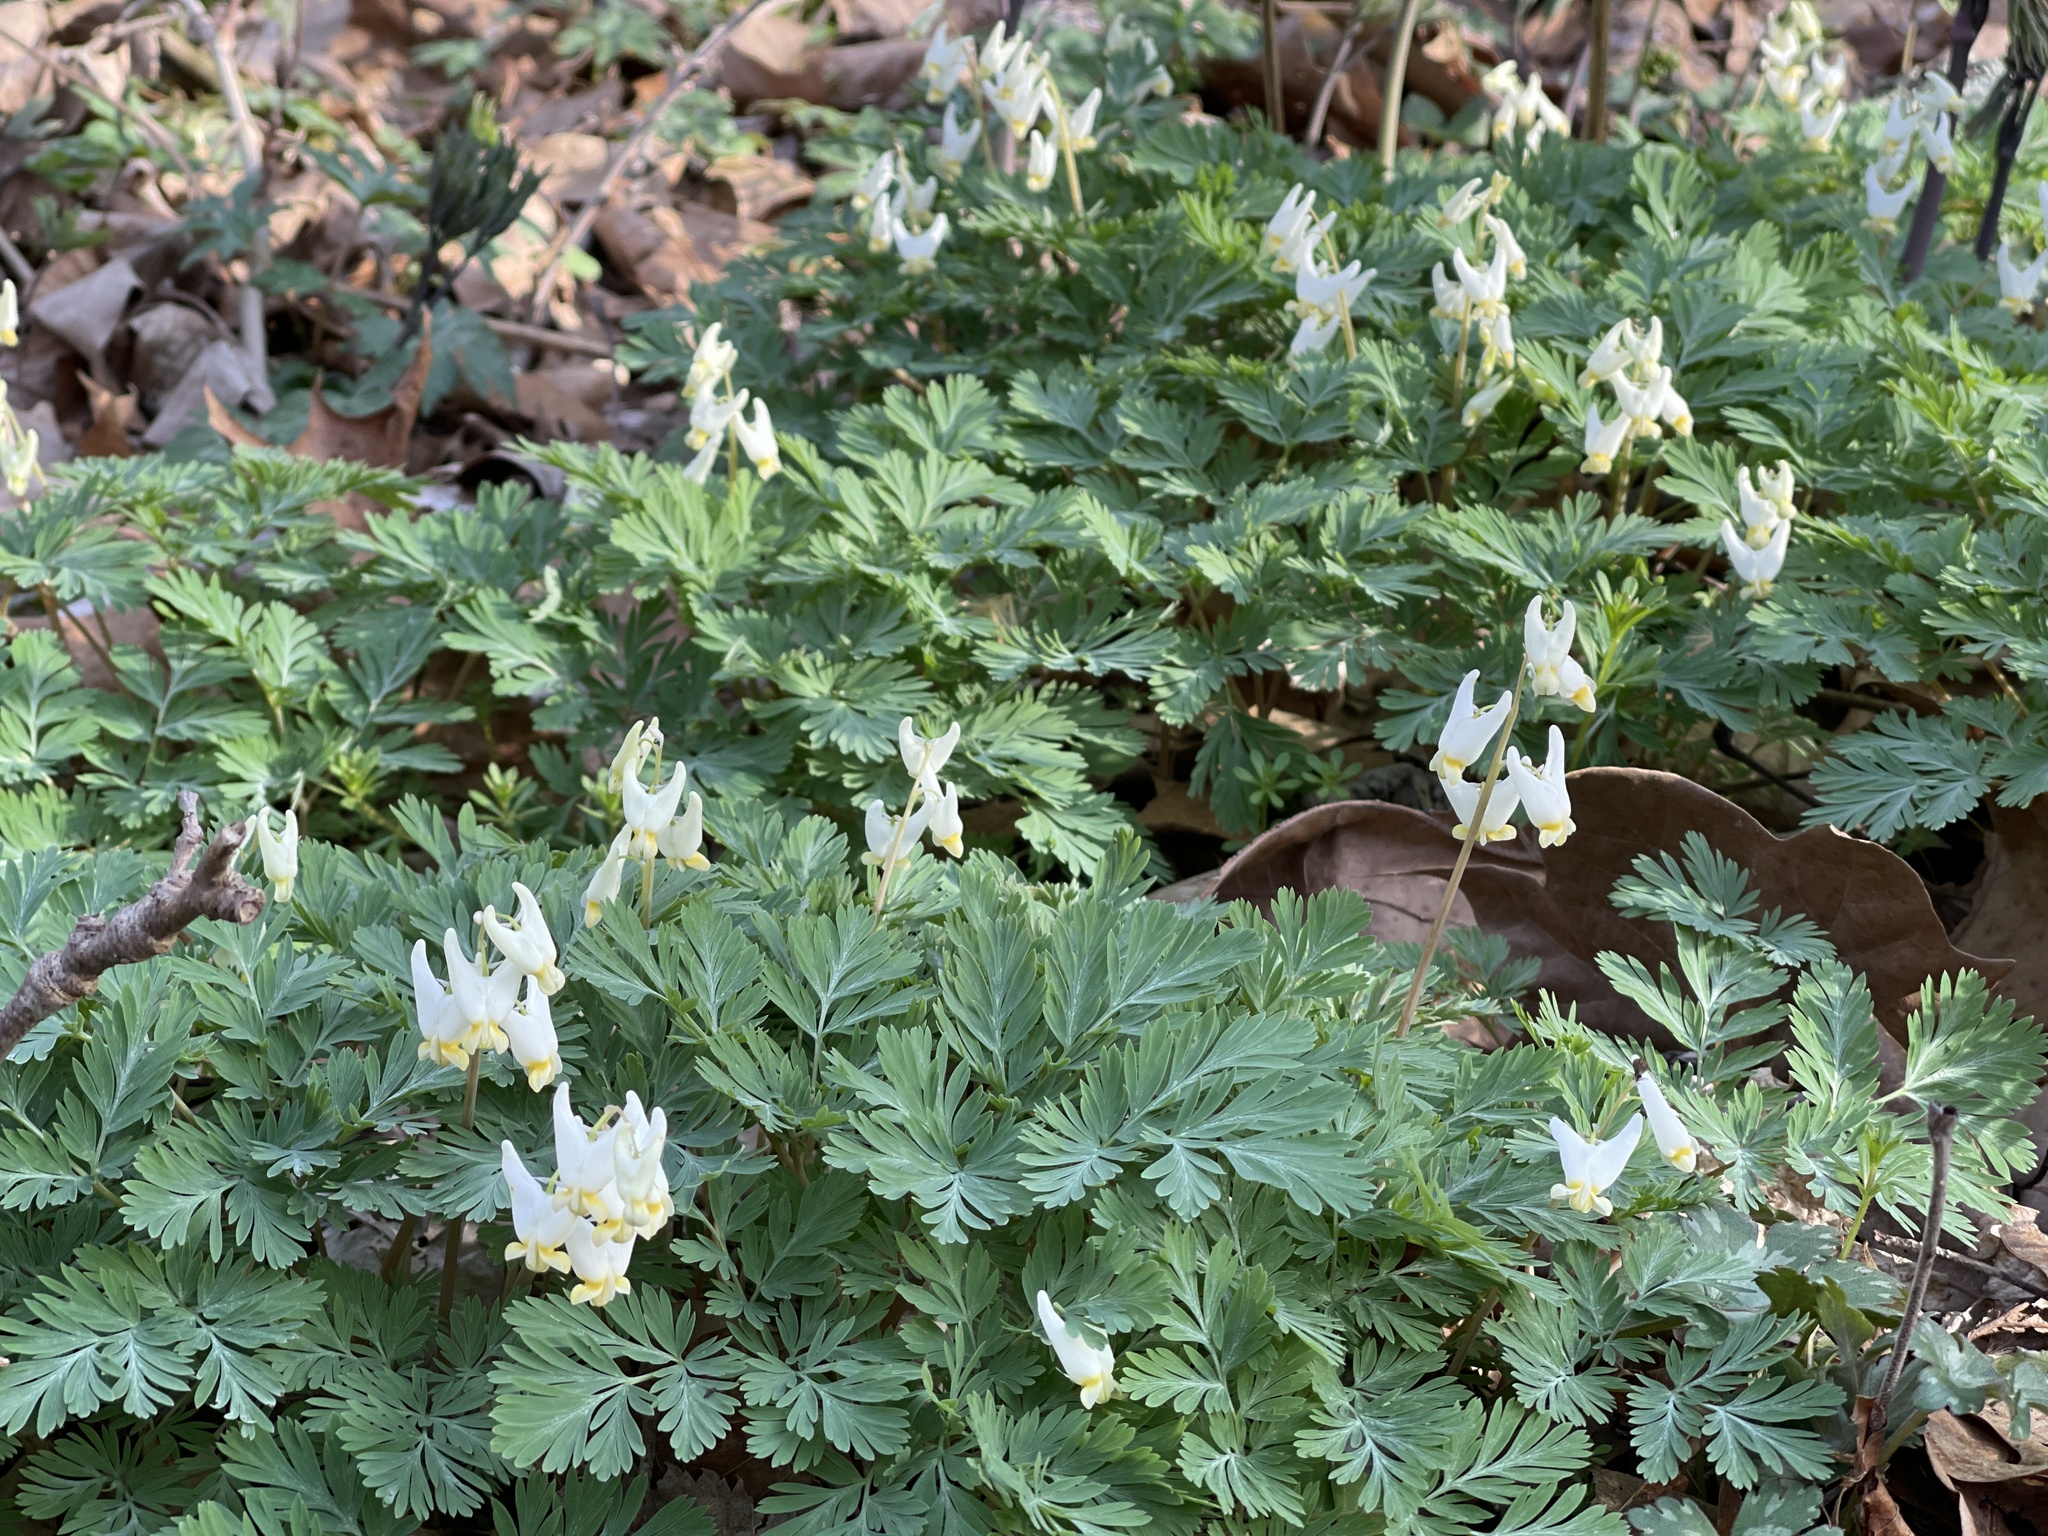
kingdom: Plantae
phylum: Tracheophyta
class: Magnoliopsida
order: Ranunculales
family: Papaveraceae
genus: Dicentra
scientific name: Dicentra cucullaria
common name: Dutchman's breeches
